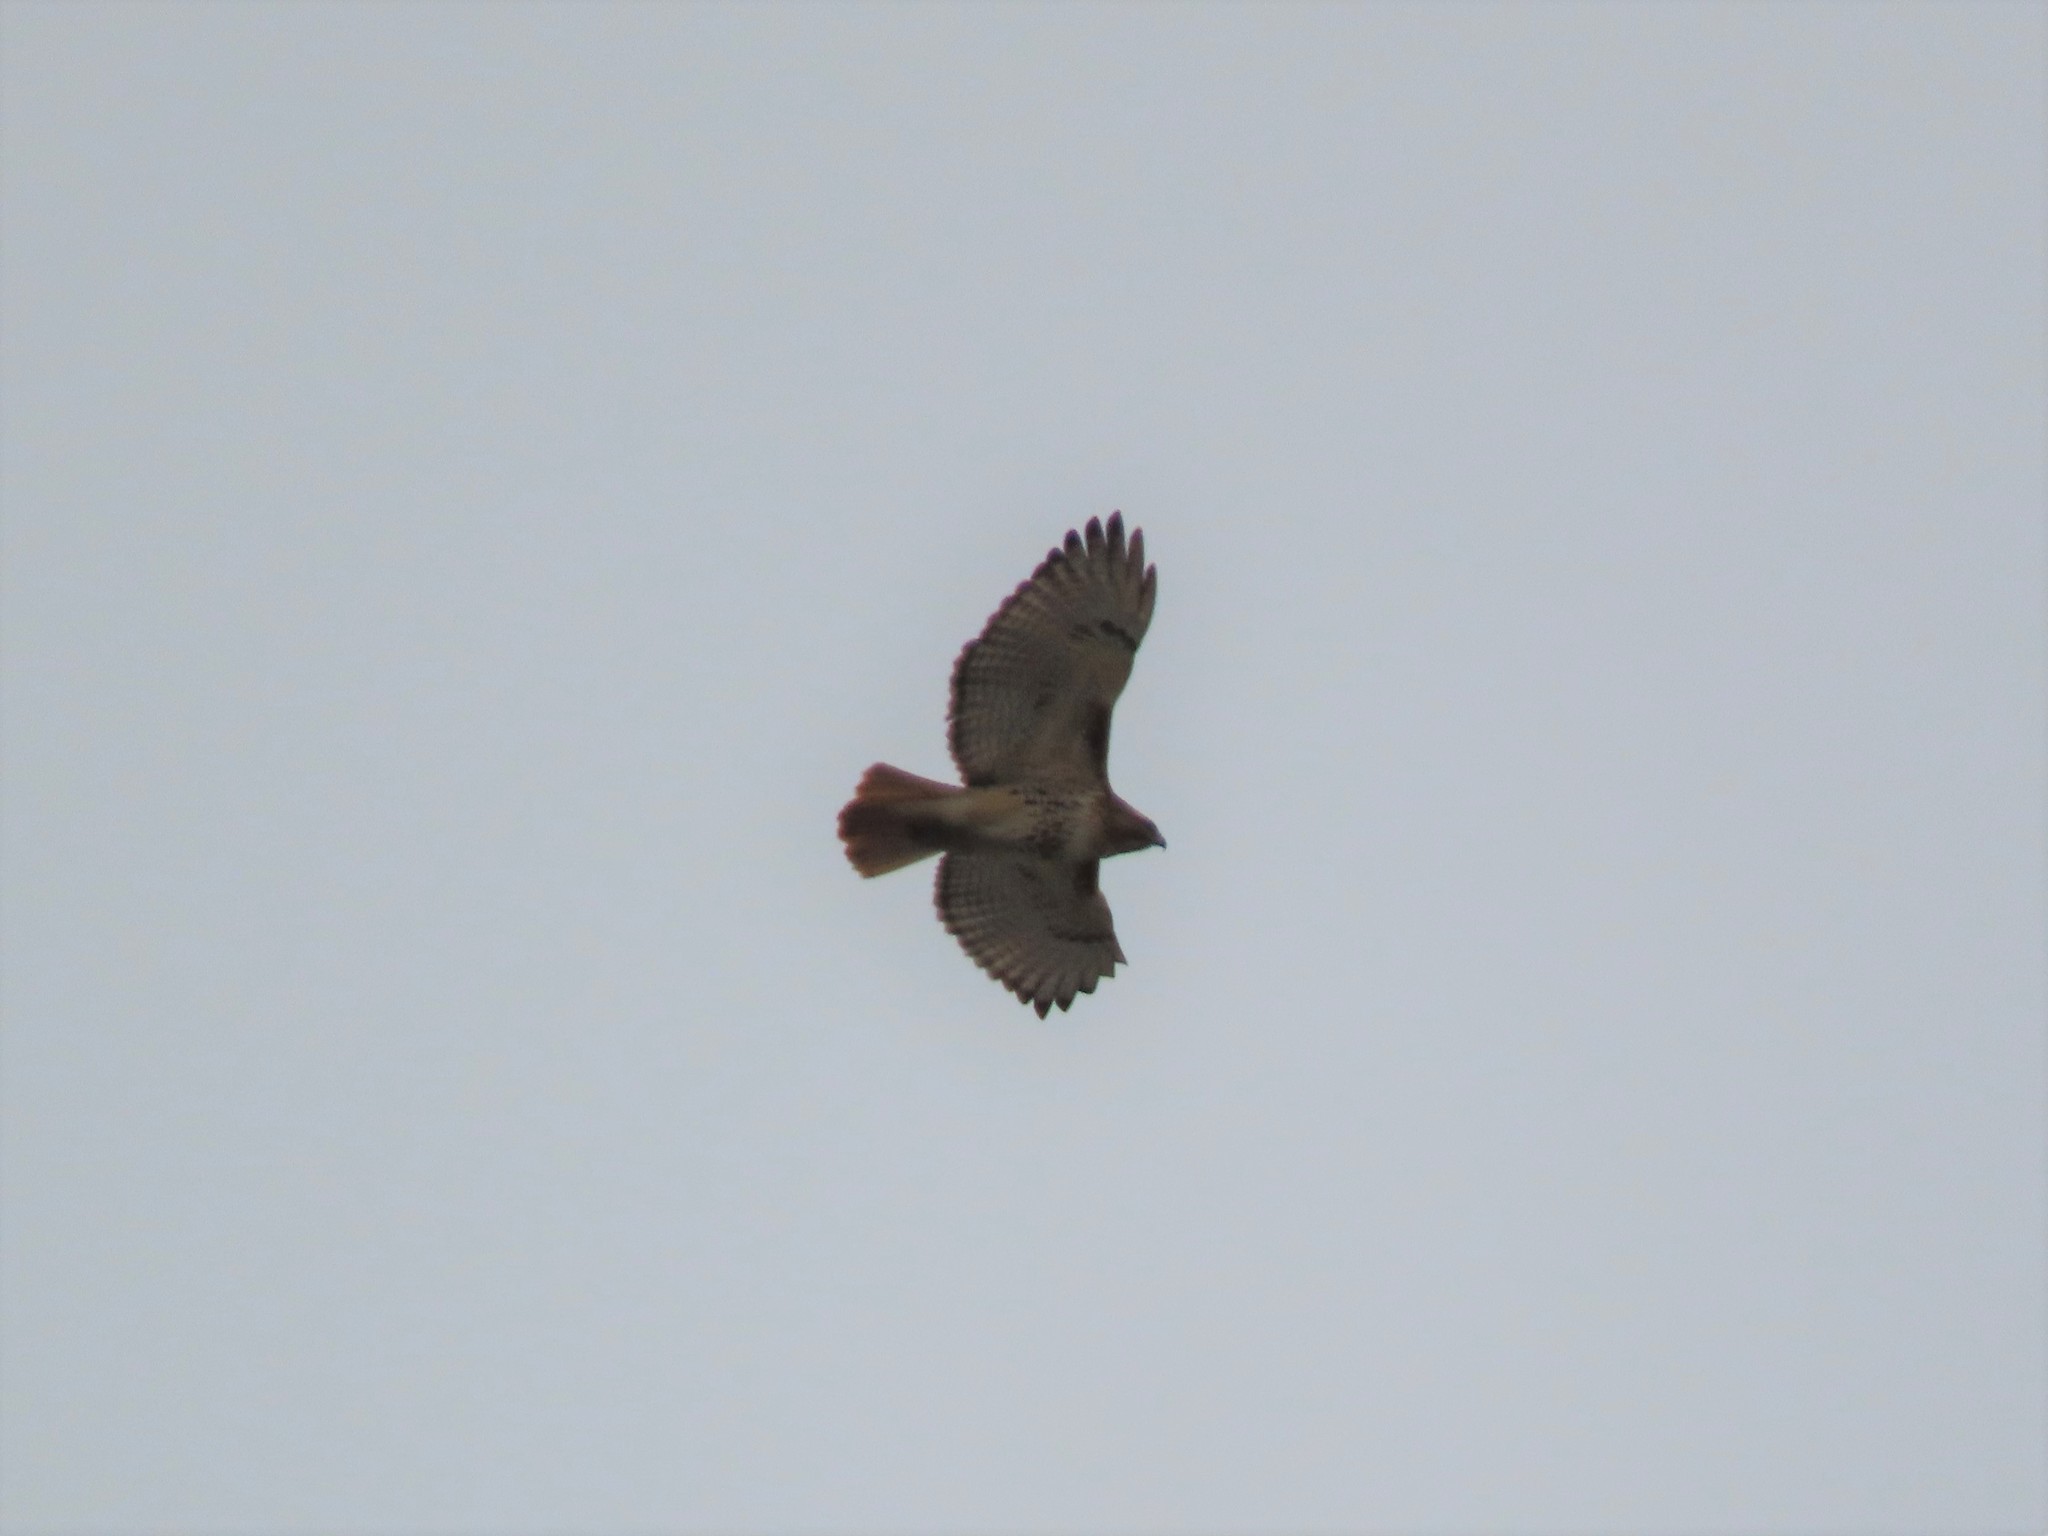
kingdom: Animalia
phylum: Chordata
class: Aves
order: Accipitriformes
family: Accipitridae
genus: Buteo
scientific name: Buteo jamaicensis
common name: Red-tailed hawk
